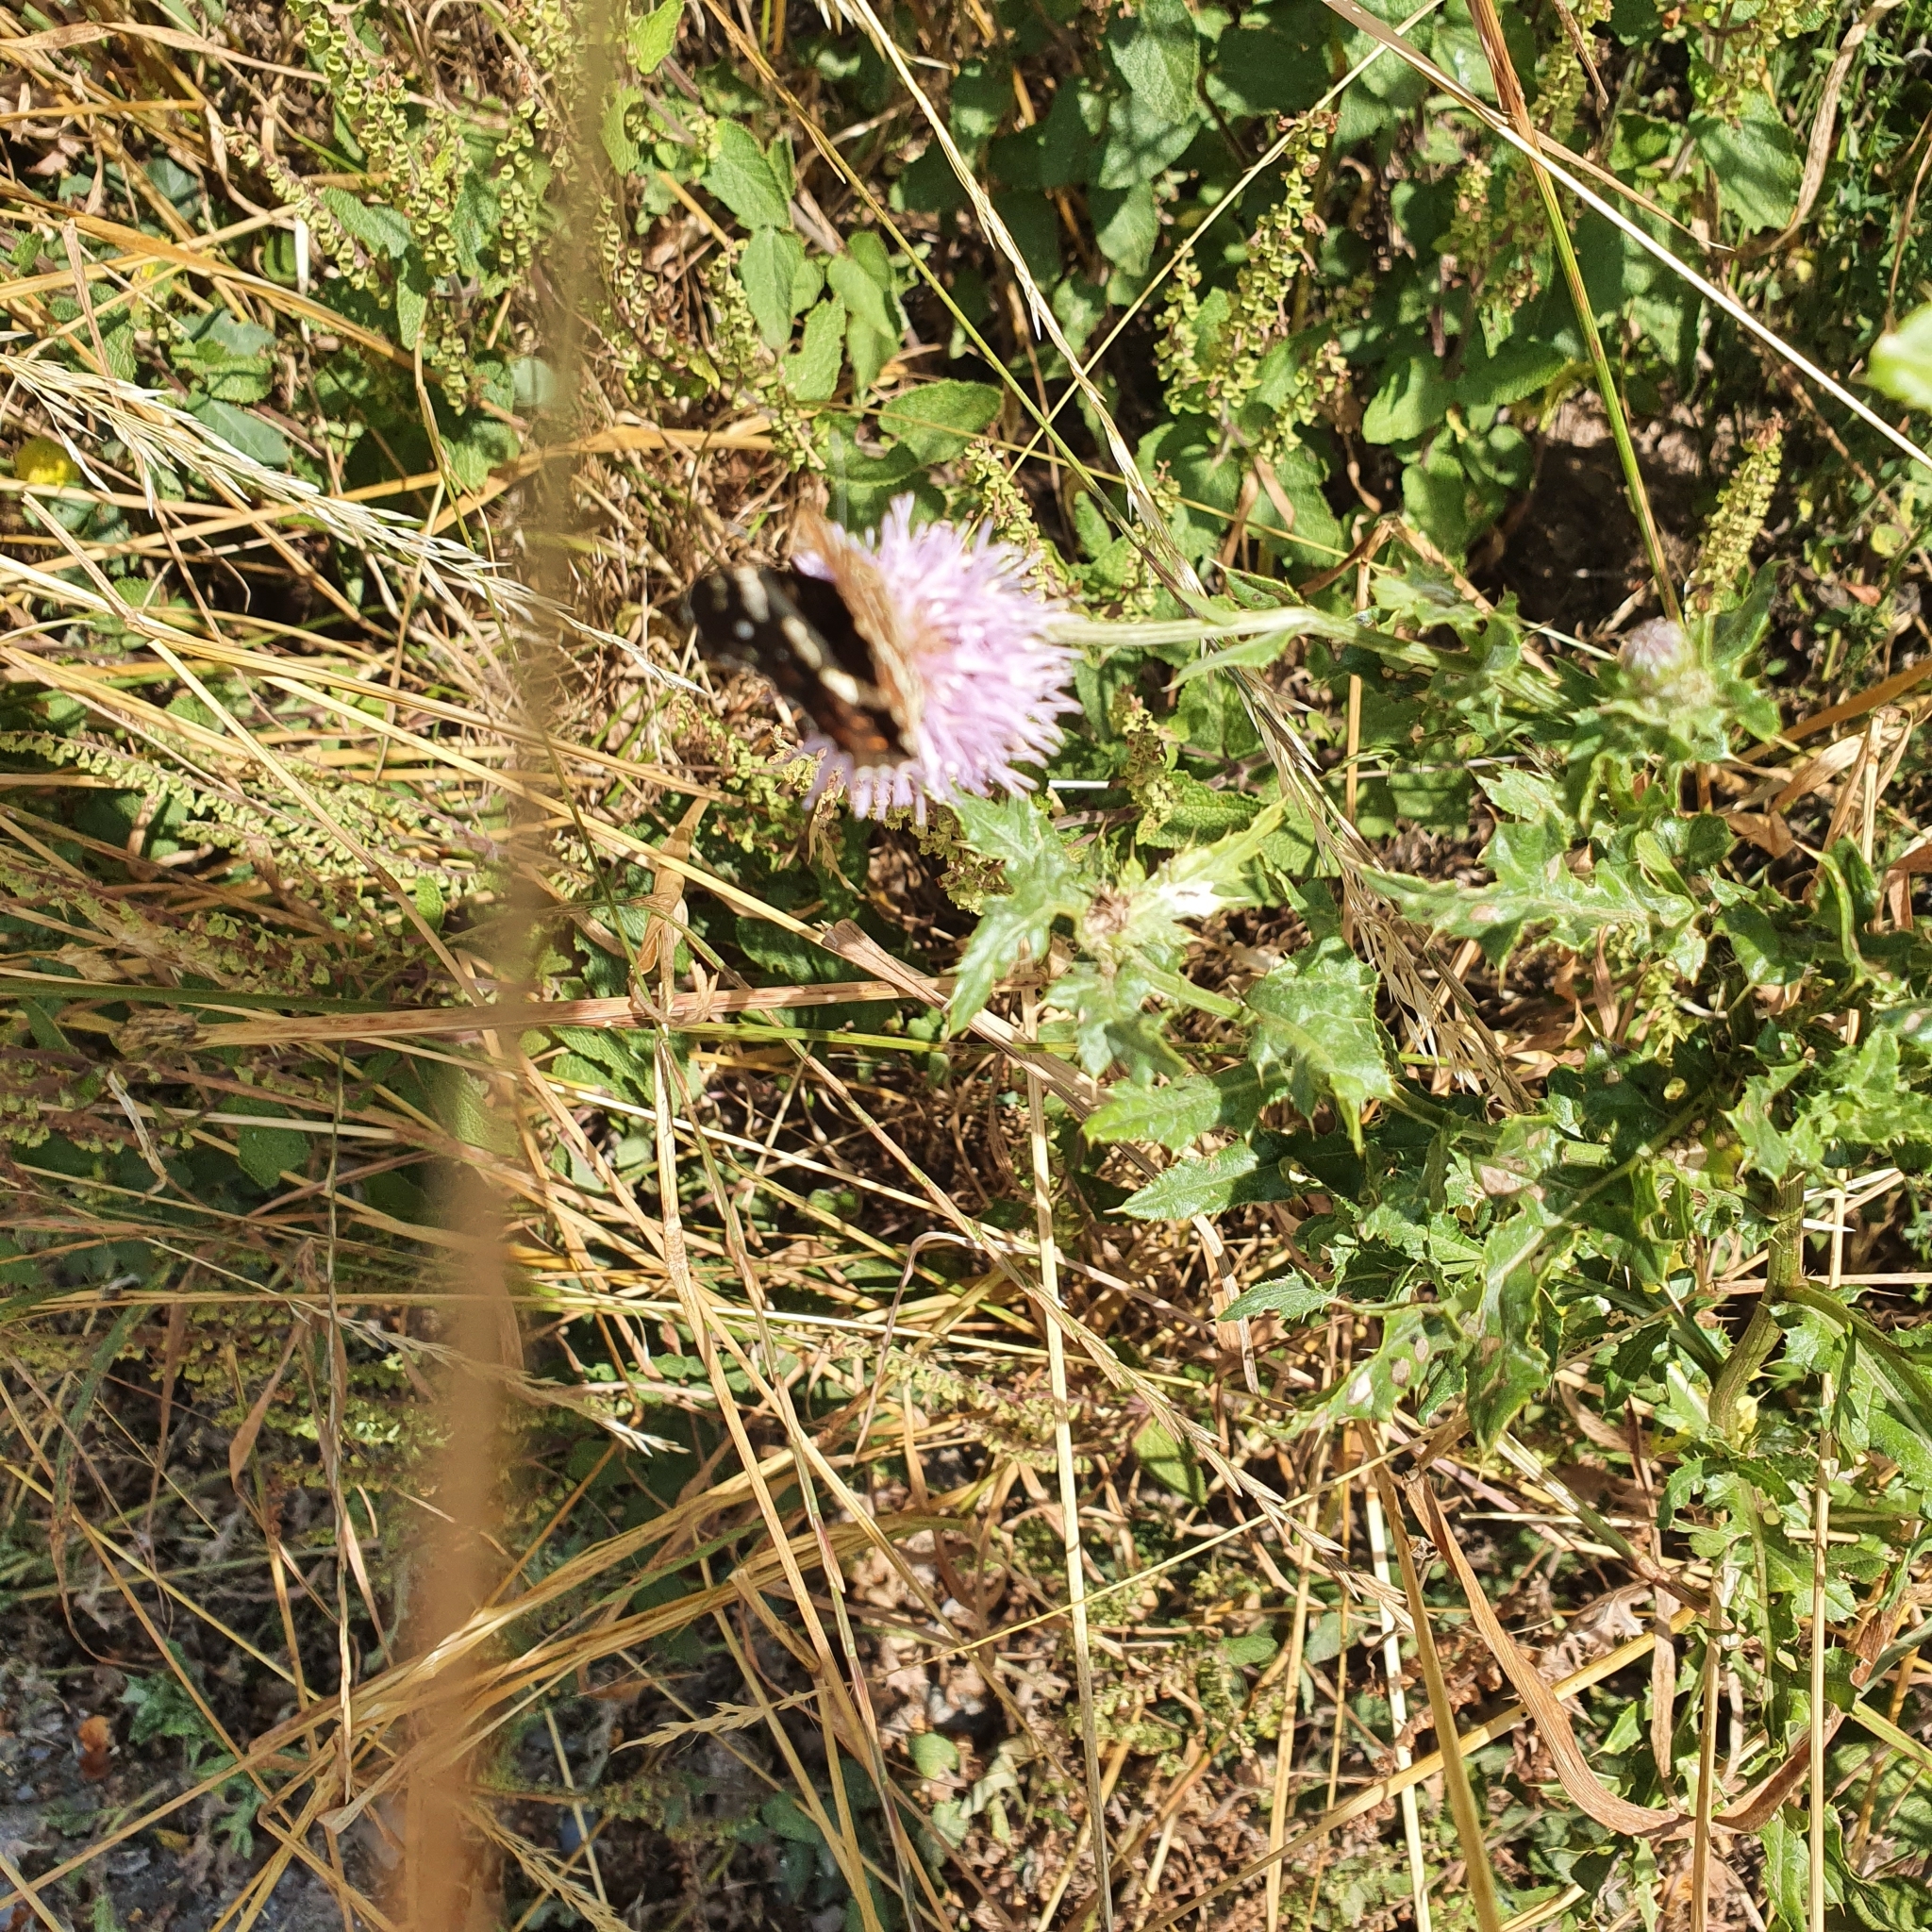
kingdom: Animalia
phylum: Arthropoda
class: Insecta
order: Lepidoptera
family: Nymphalidae
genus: Araschnia
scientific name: Araschnia levana
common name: Map butterfly
